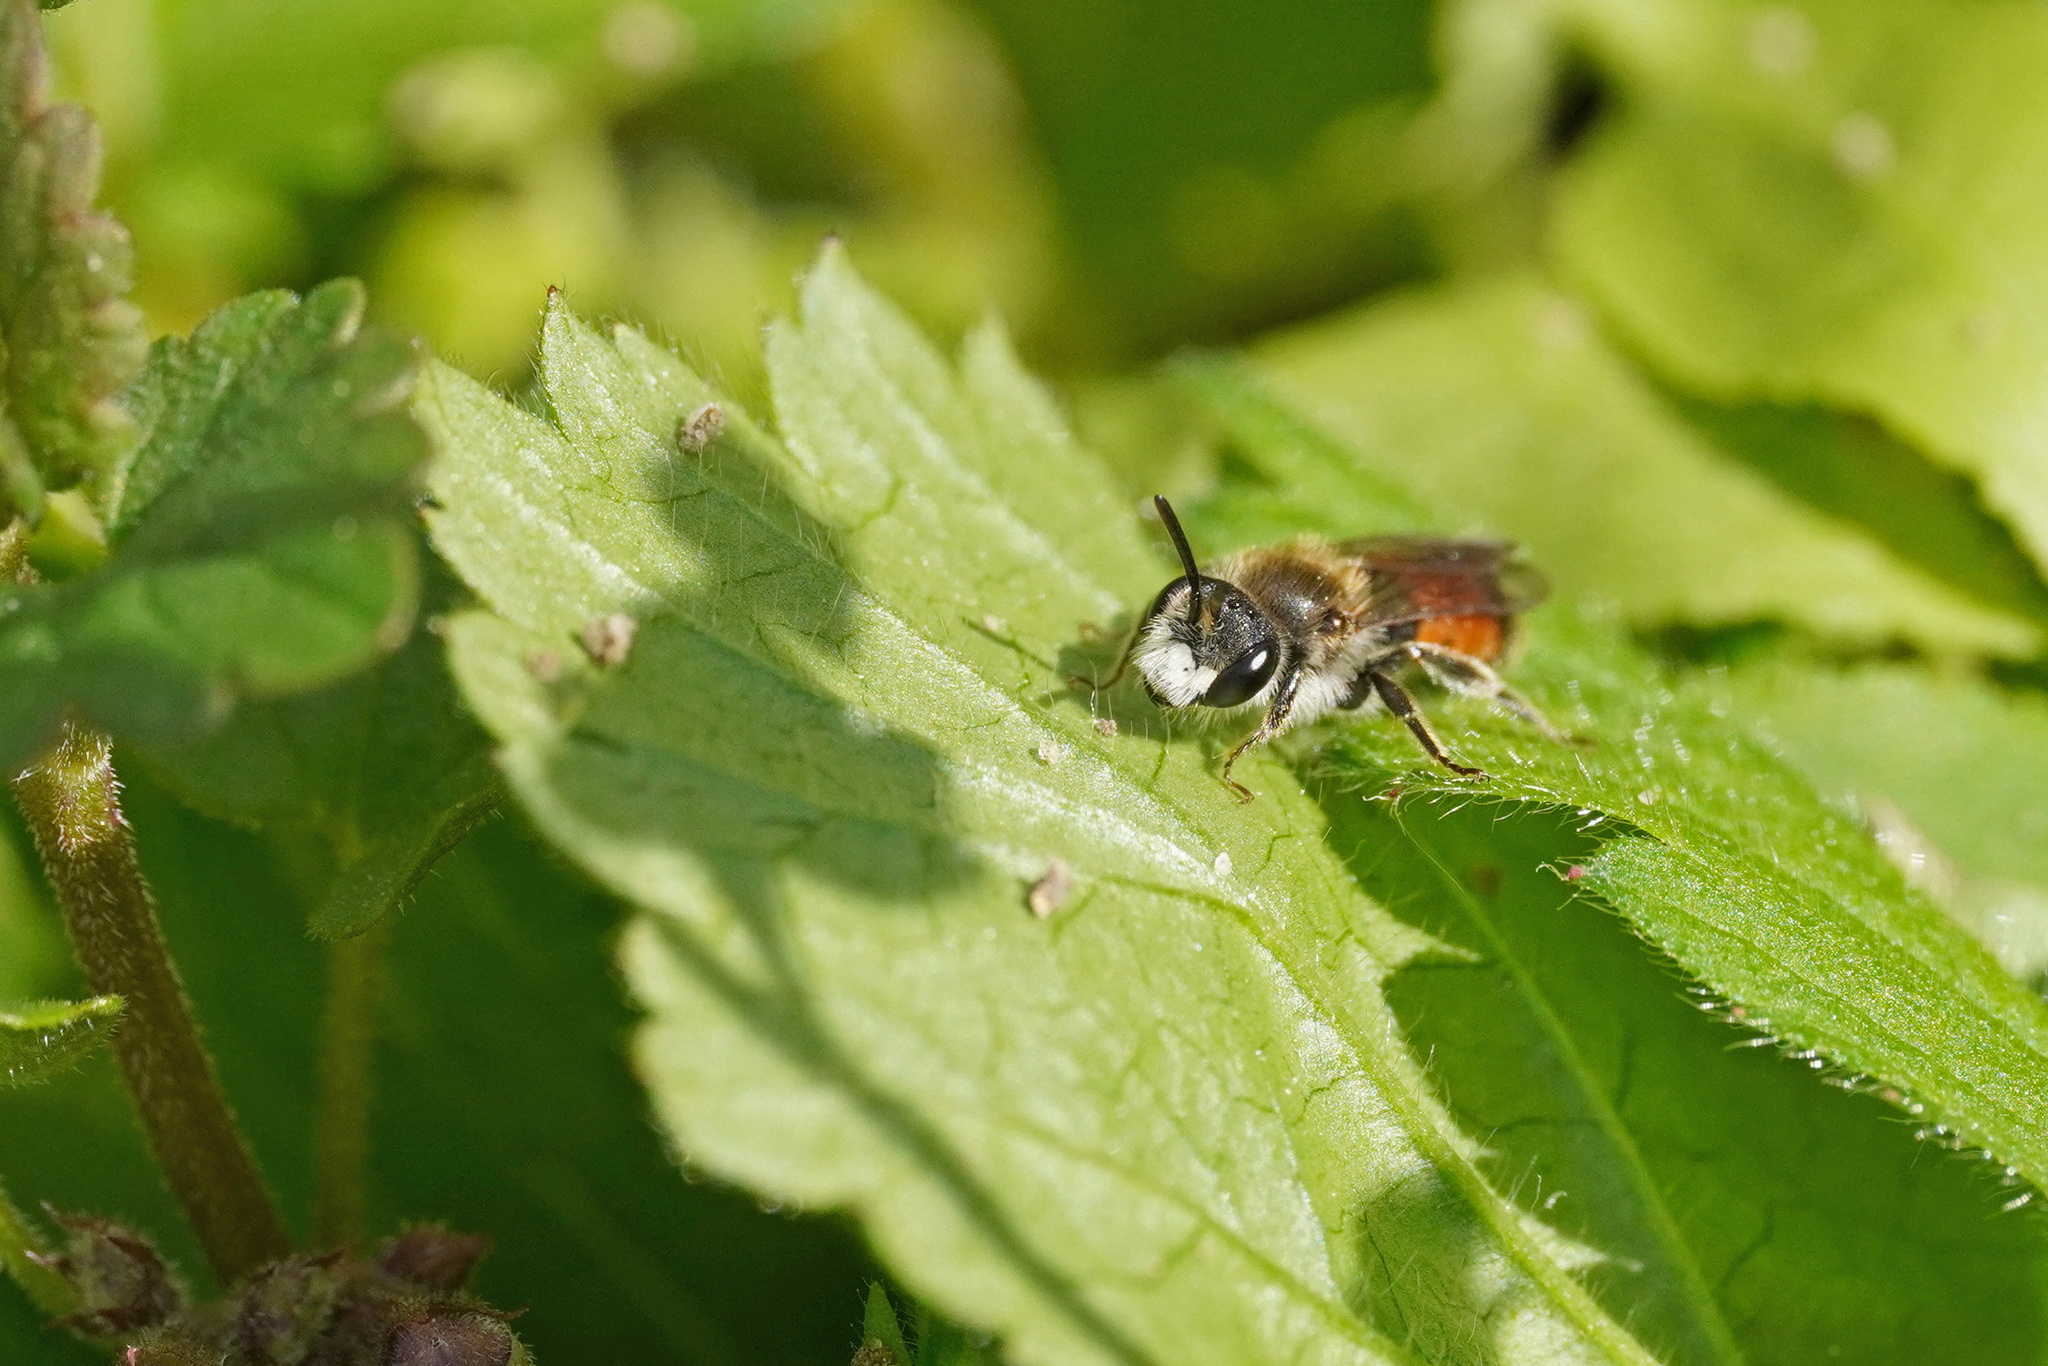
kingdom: Animalia
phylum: Arthropoda
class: Insecta
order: Hymenoptera
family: Andrenidae
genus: Andrena
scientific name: Andrena labiata
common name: Red-girdled mining bee
